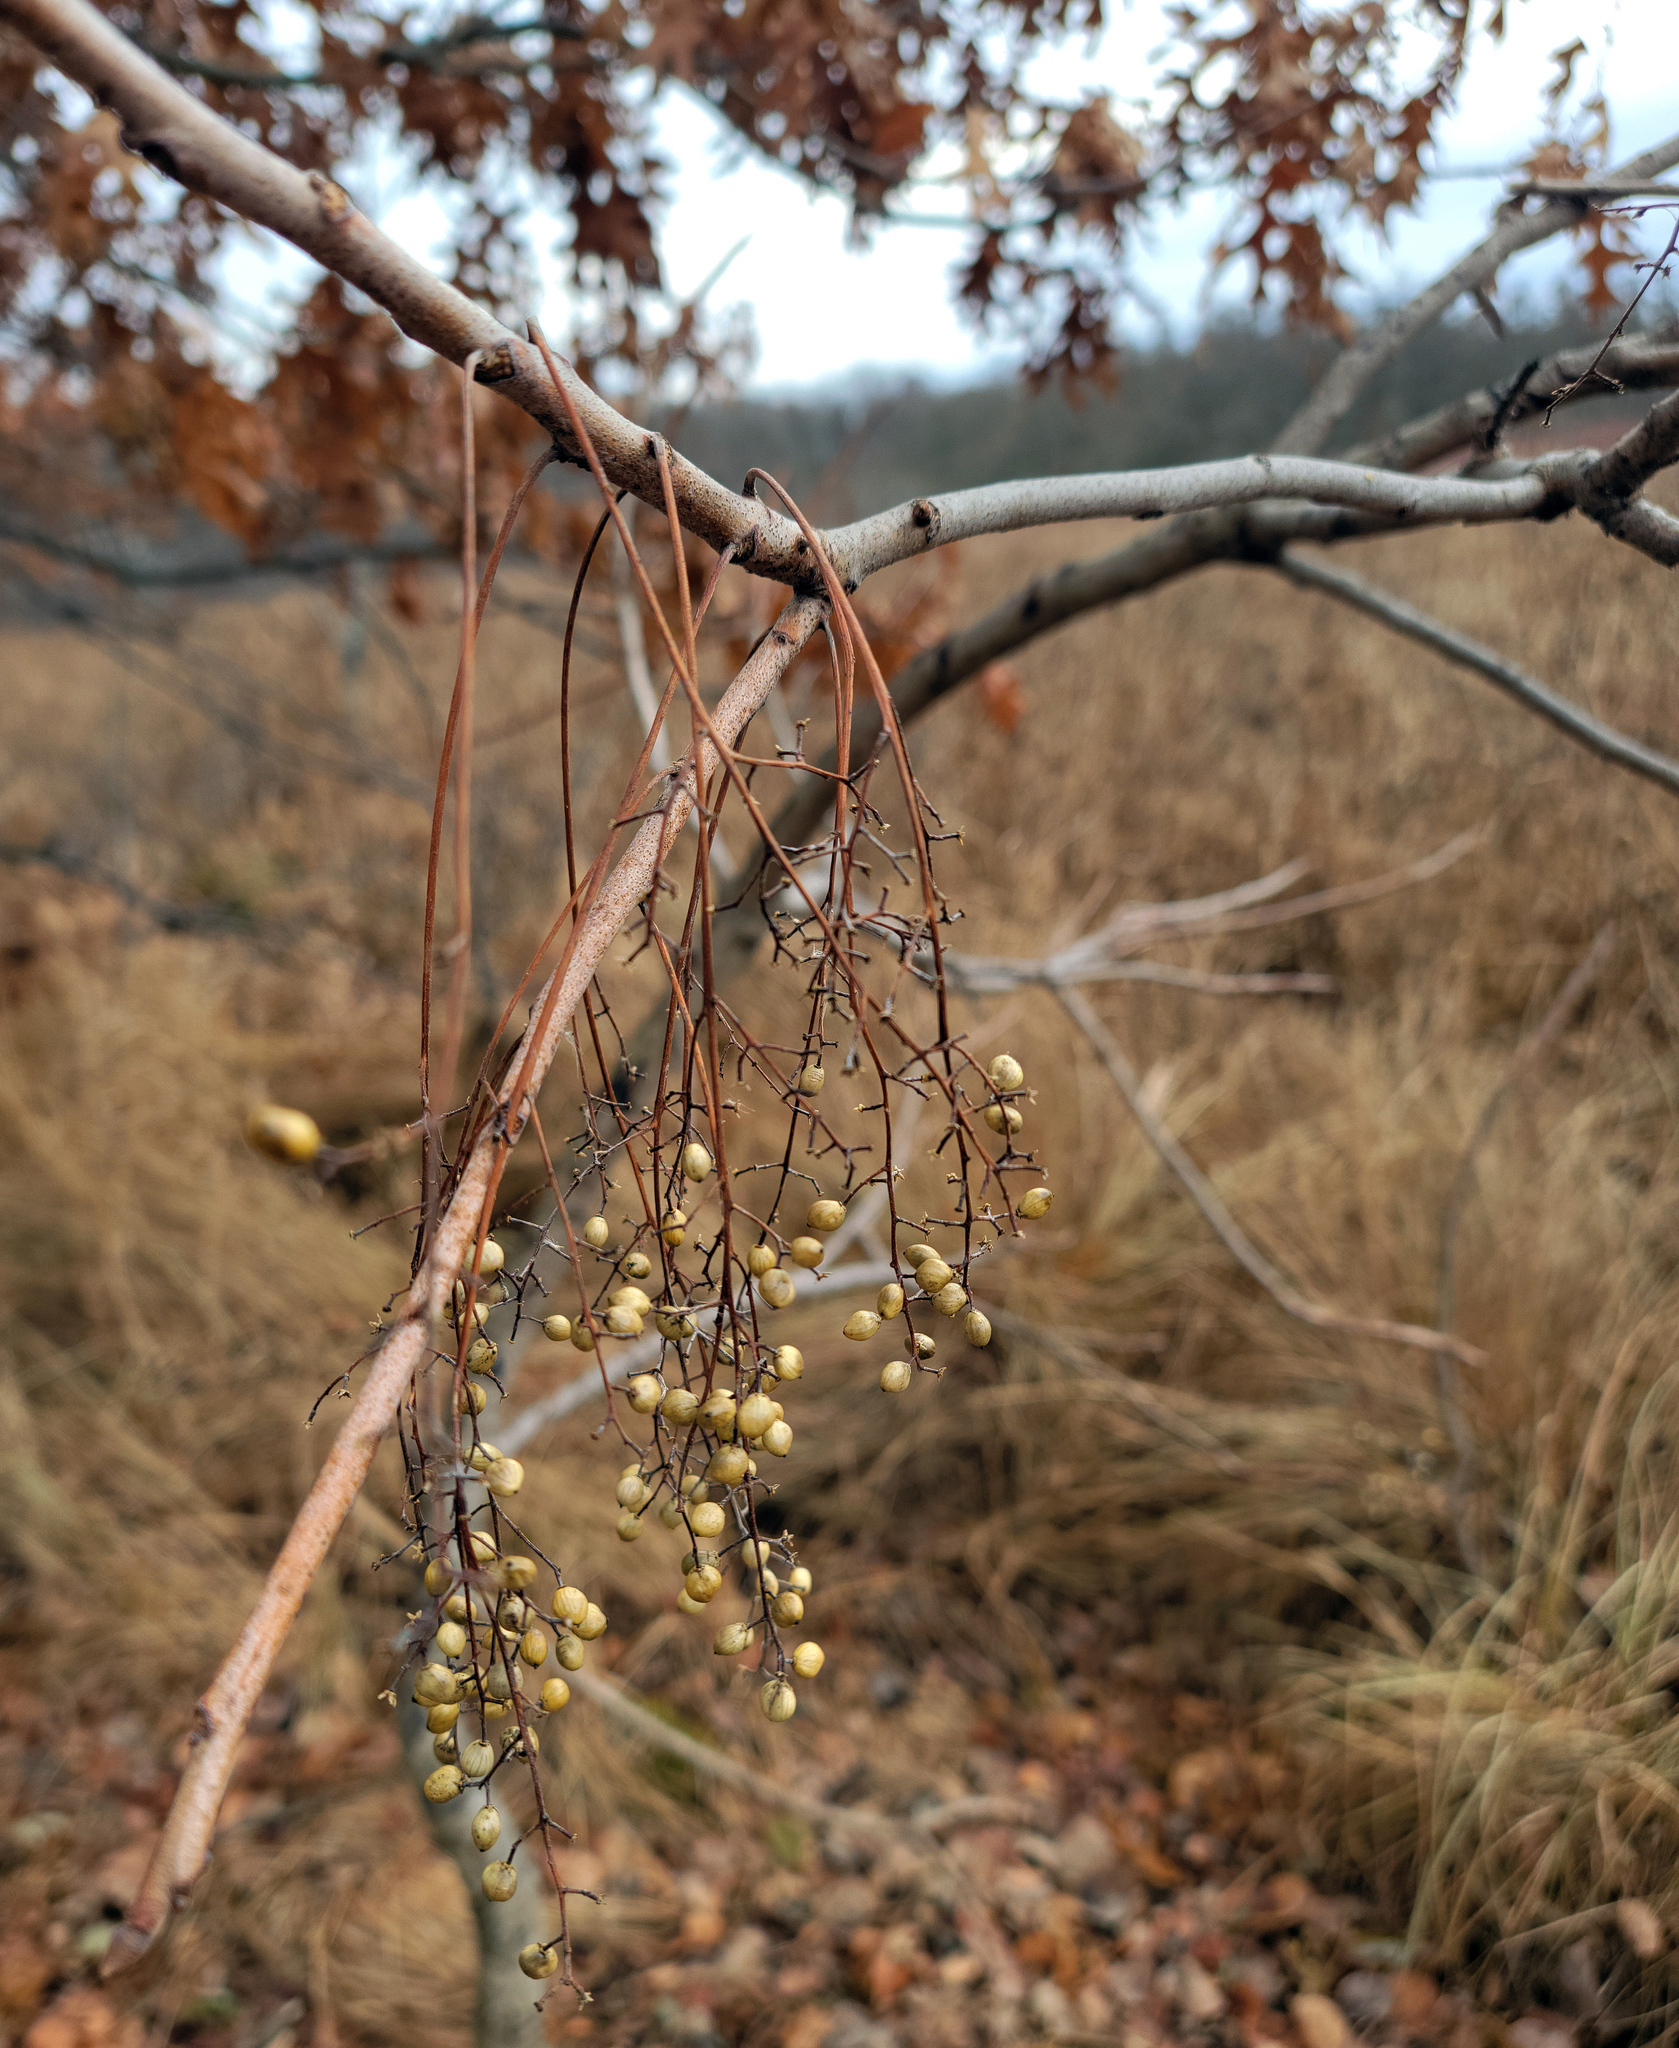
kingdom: Plantae
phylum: Tracheophyta
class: Magnoliopsida
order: Sapindales
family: Anacardiaceae
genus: Toxicodendron
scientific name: Toxicodendron vernix
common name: Poison sumac
